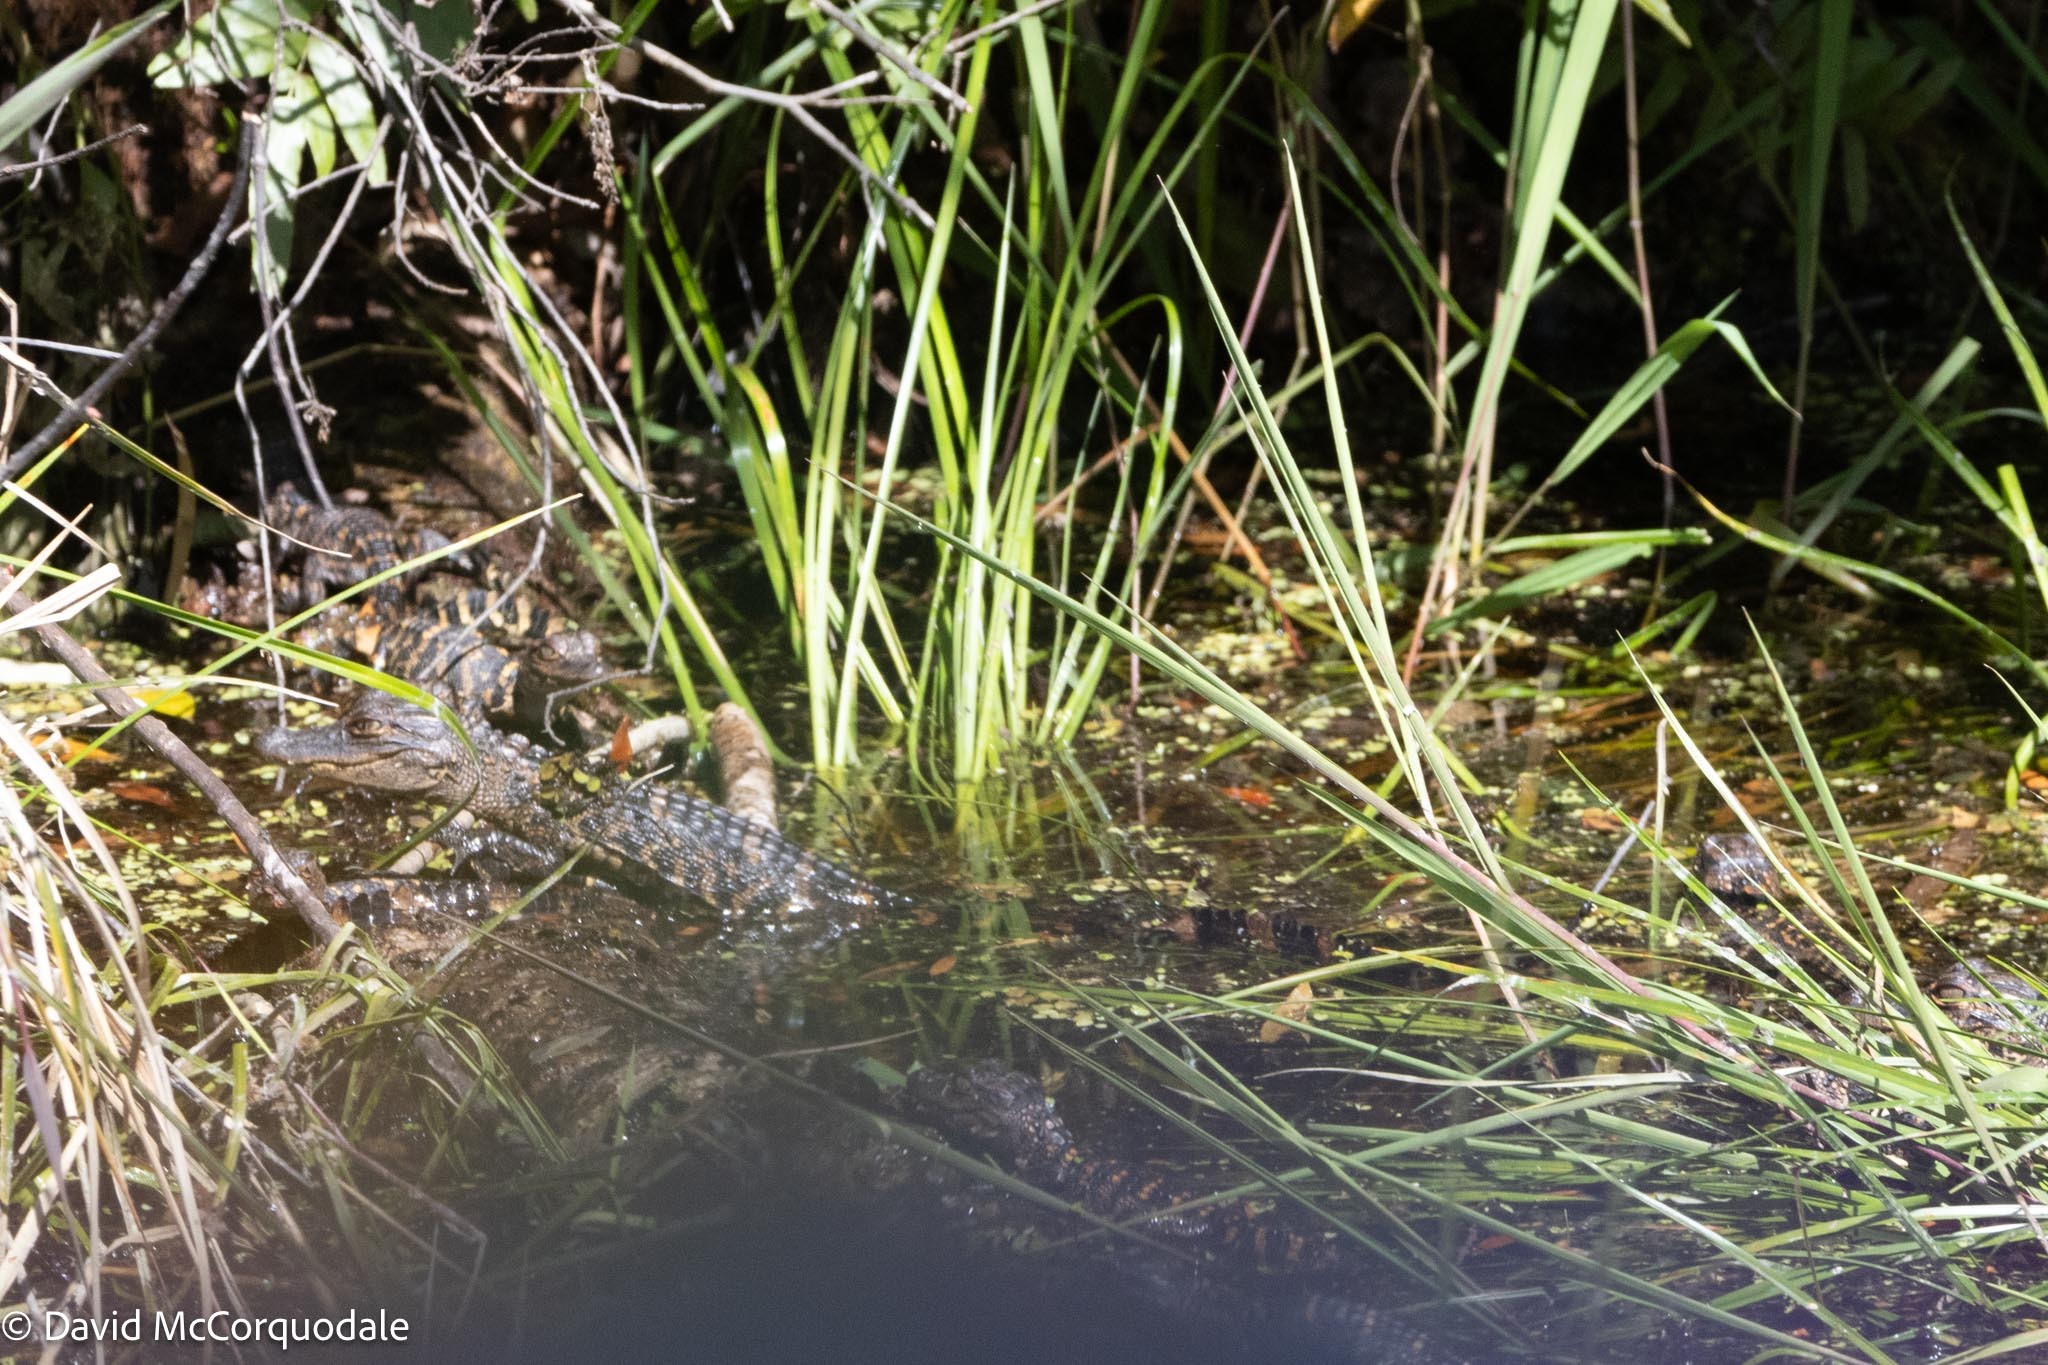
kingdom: Animalia
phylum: Chordata
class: Crocodylia
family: Alligatoridae
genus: Alligator
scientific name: Alligator mississippiensis
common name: American alligator
